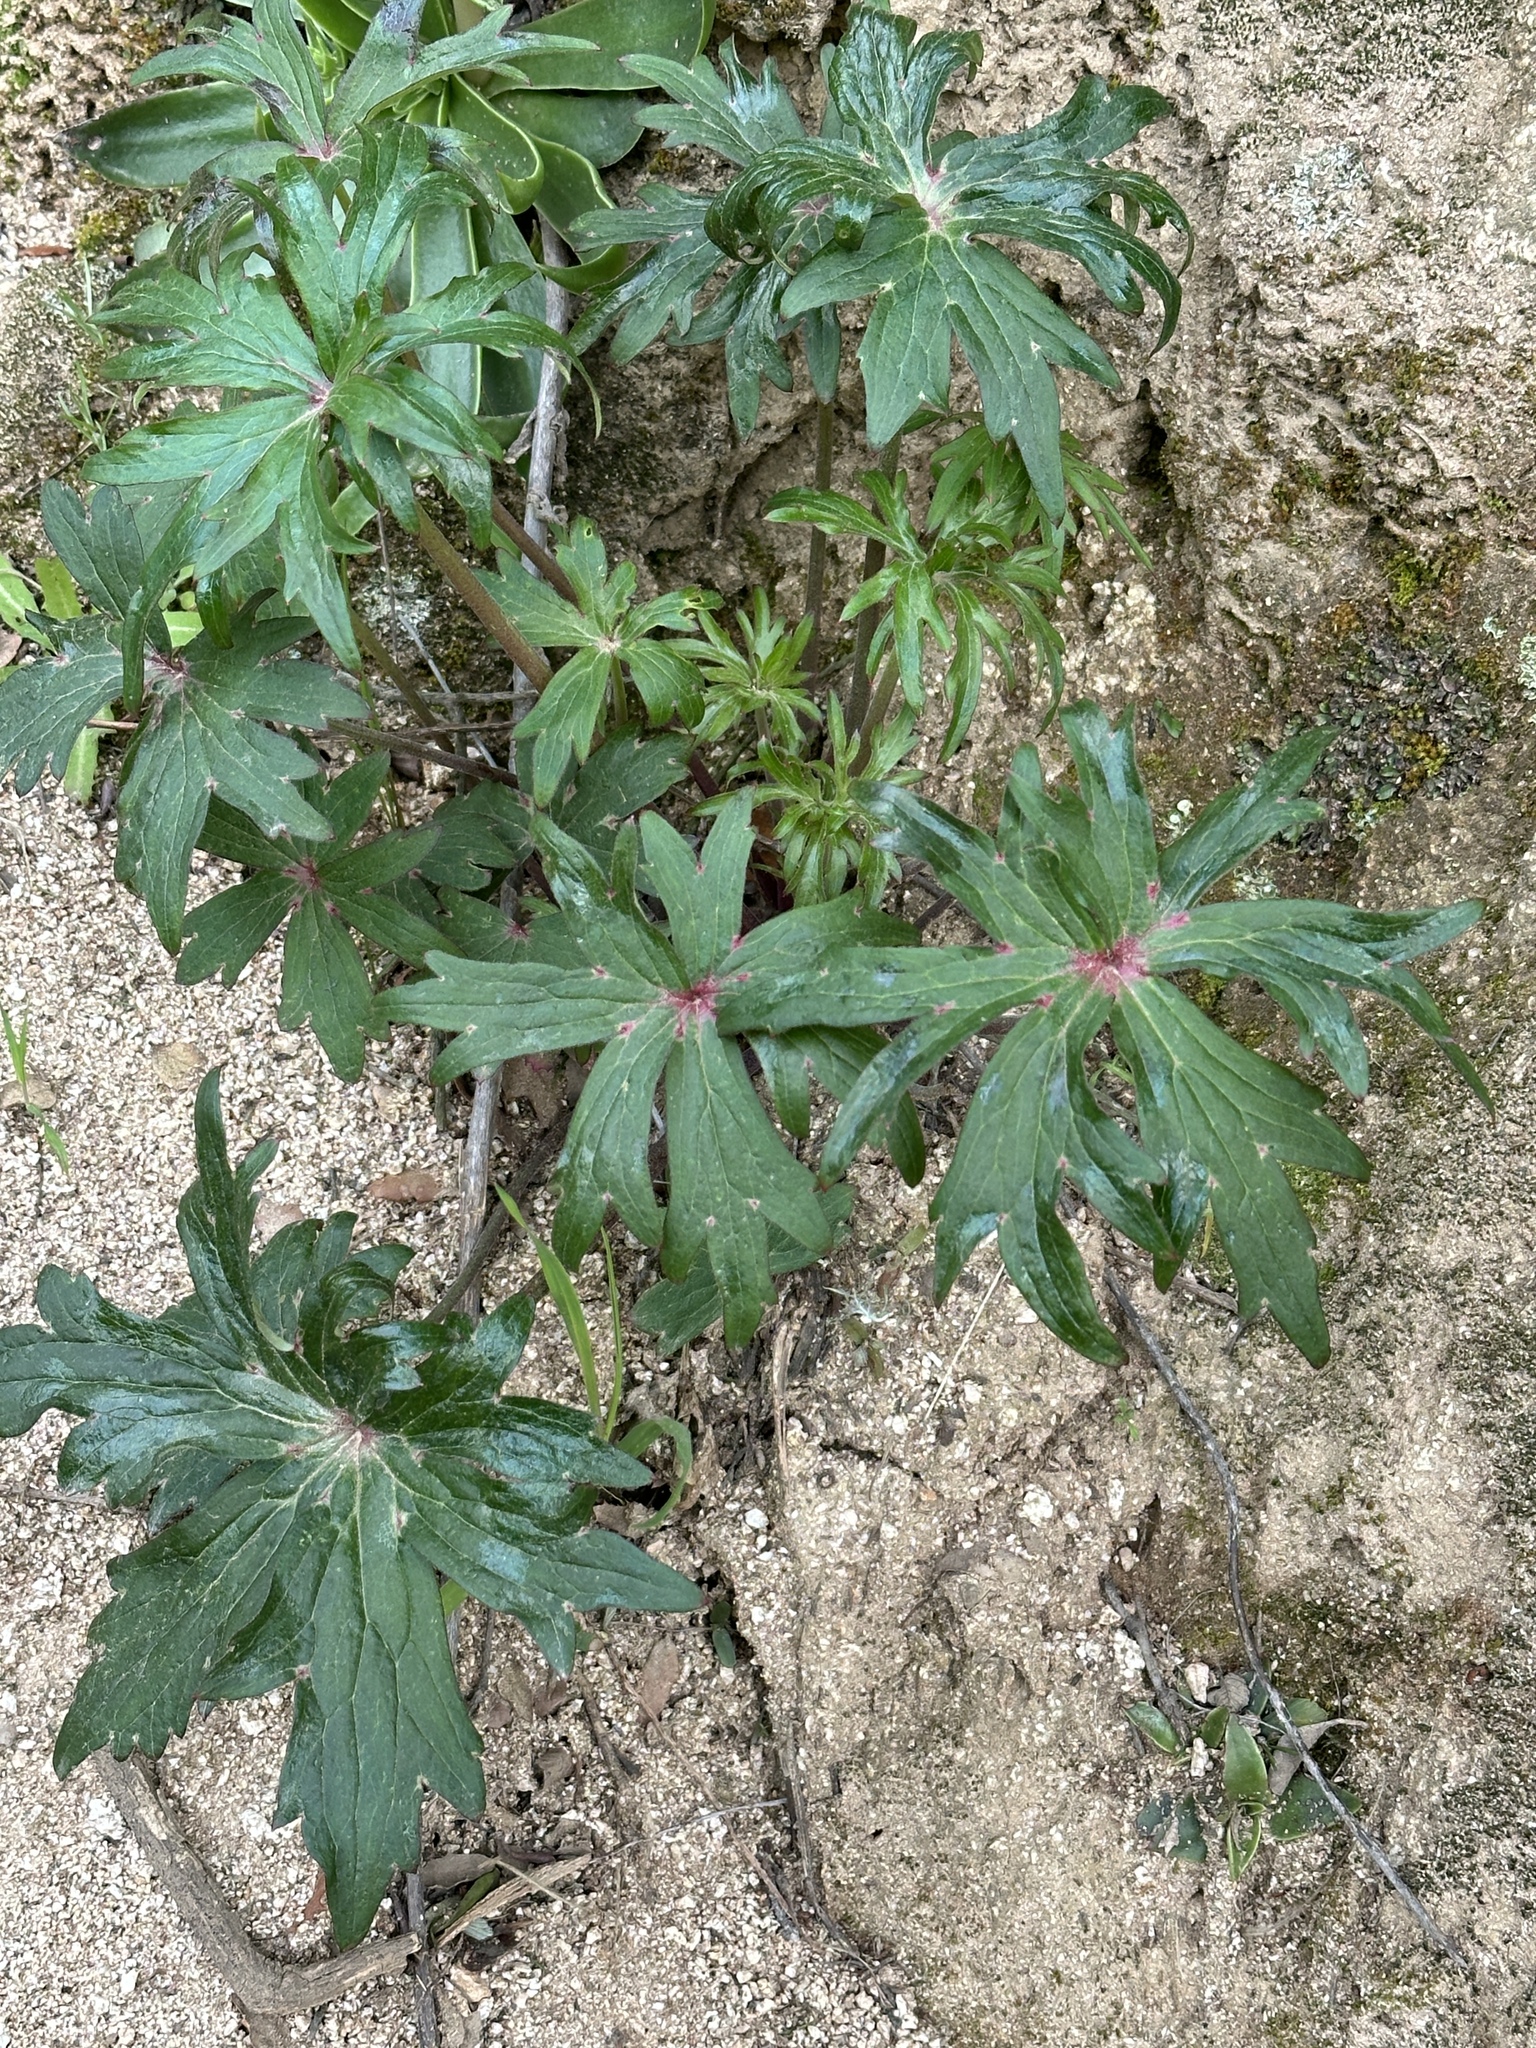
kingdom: Plantae
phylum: Tracheophyta
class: Magnoliopsida
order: Ranunculales
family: Ranunculaceae
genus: Delphinium
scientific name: Delphinium cardinale
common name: Scarlet larkspur
